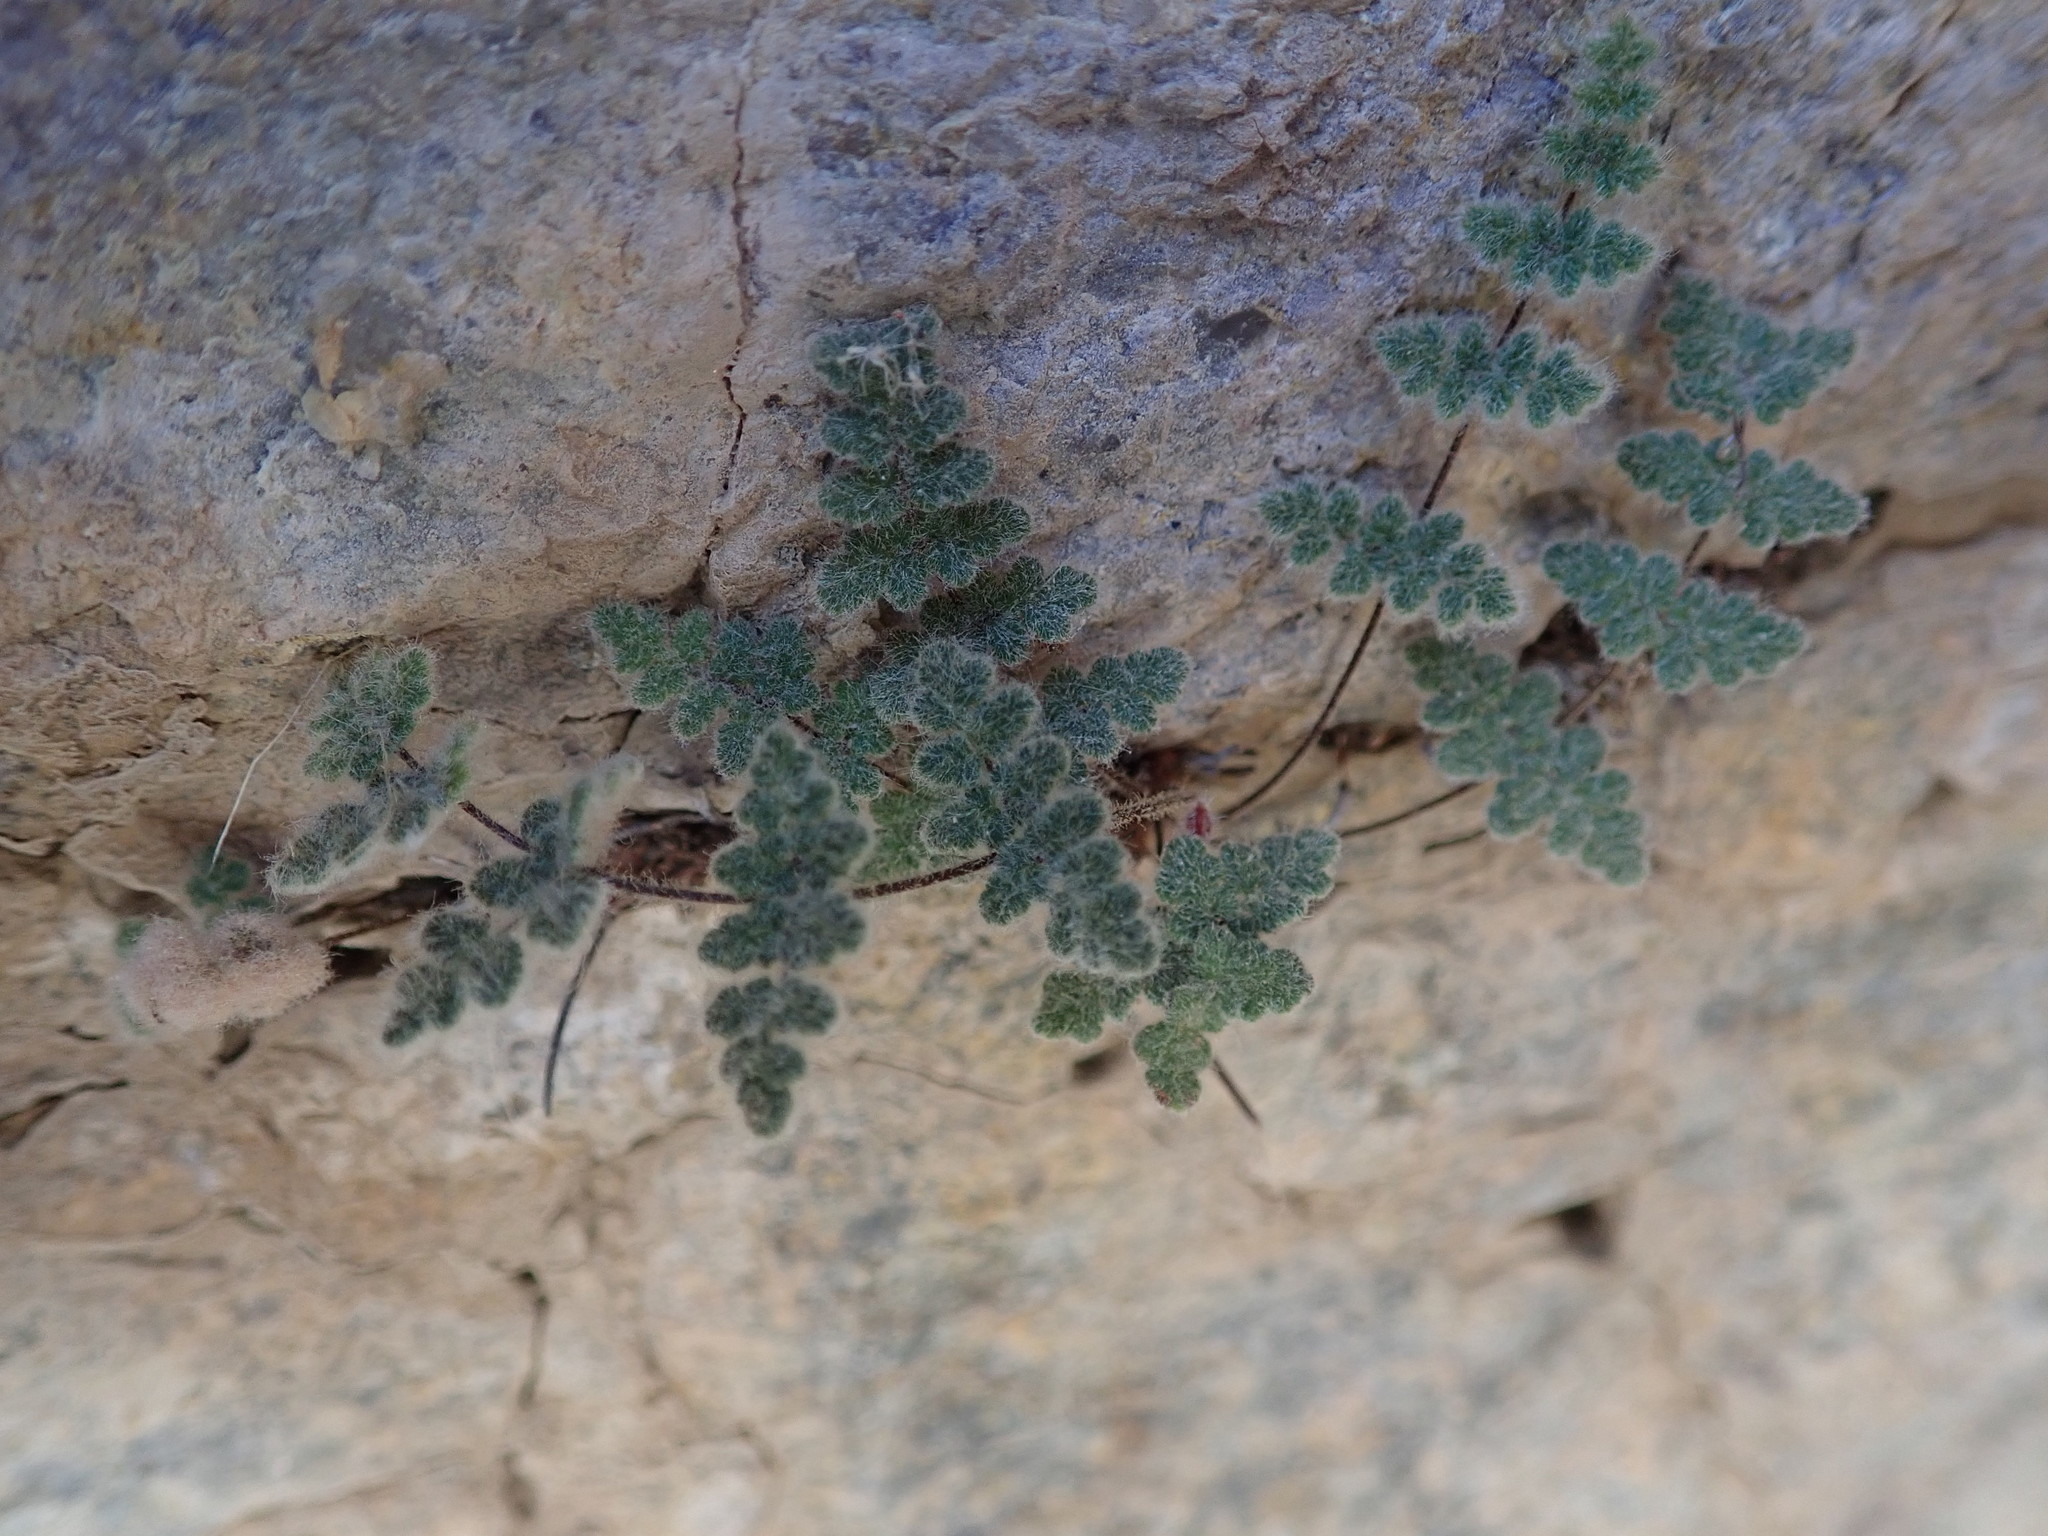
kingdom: Plantae
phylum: Tracheophyta
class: Polypodiopsida
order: Polypodiales
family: Pteridaceae
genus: Myriopteris
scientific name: Myriopteris parryi
